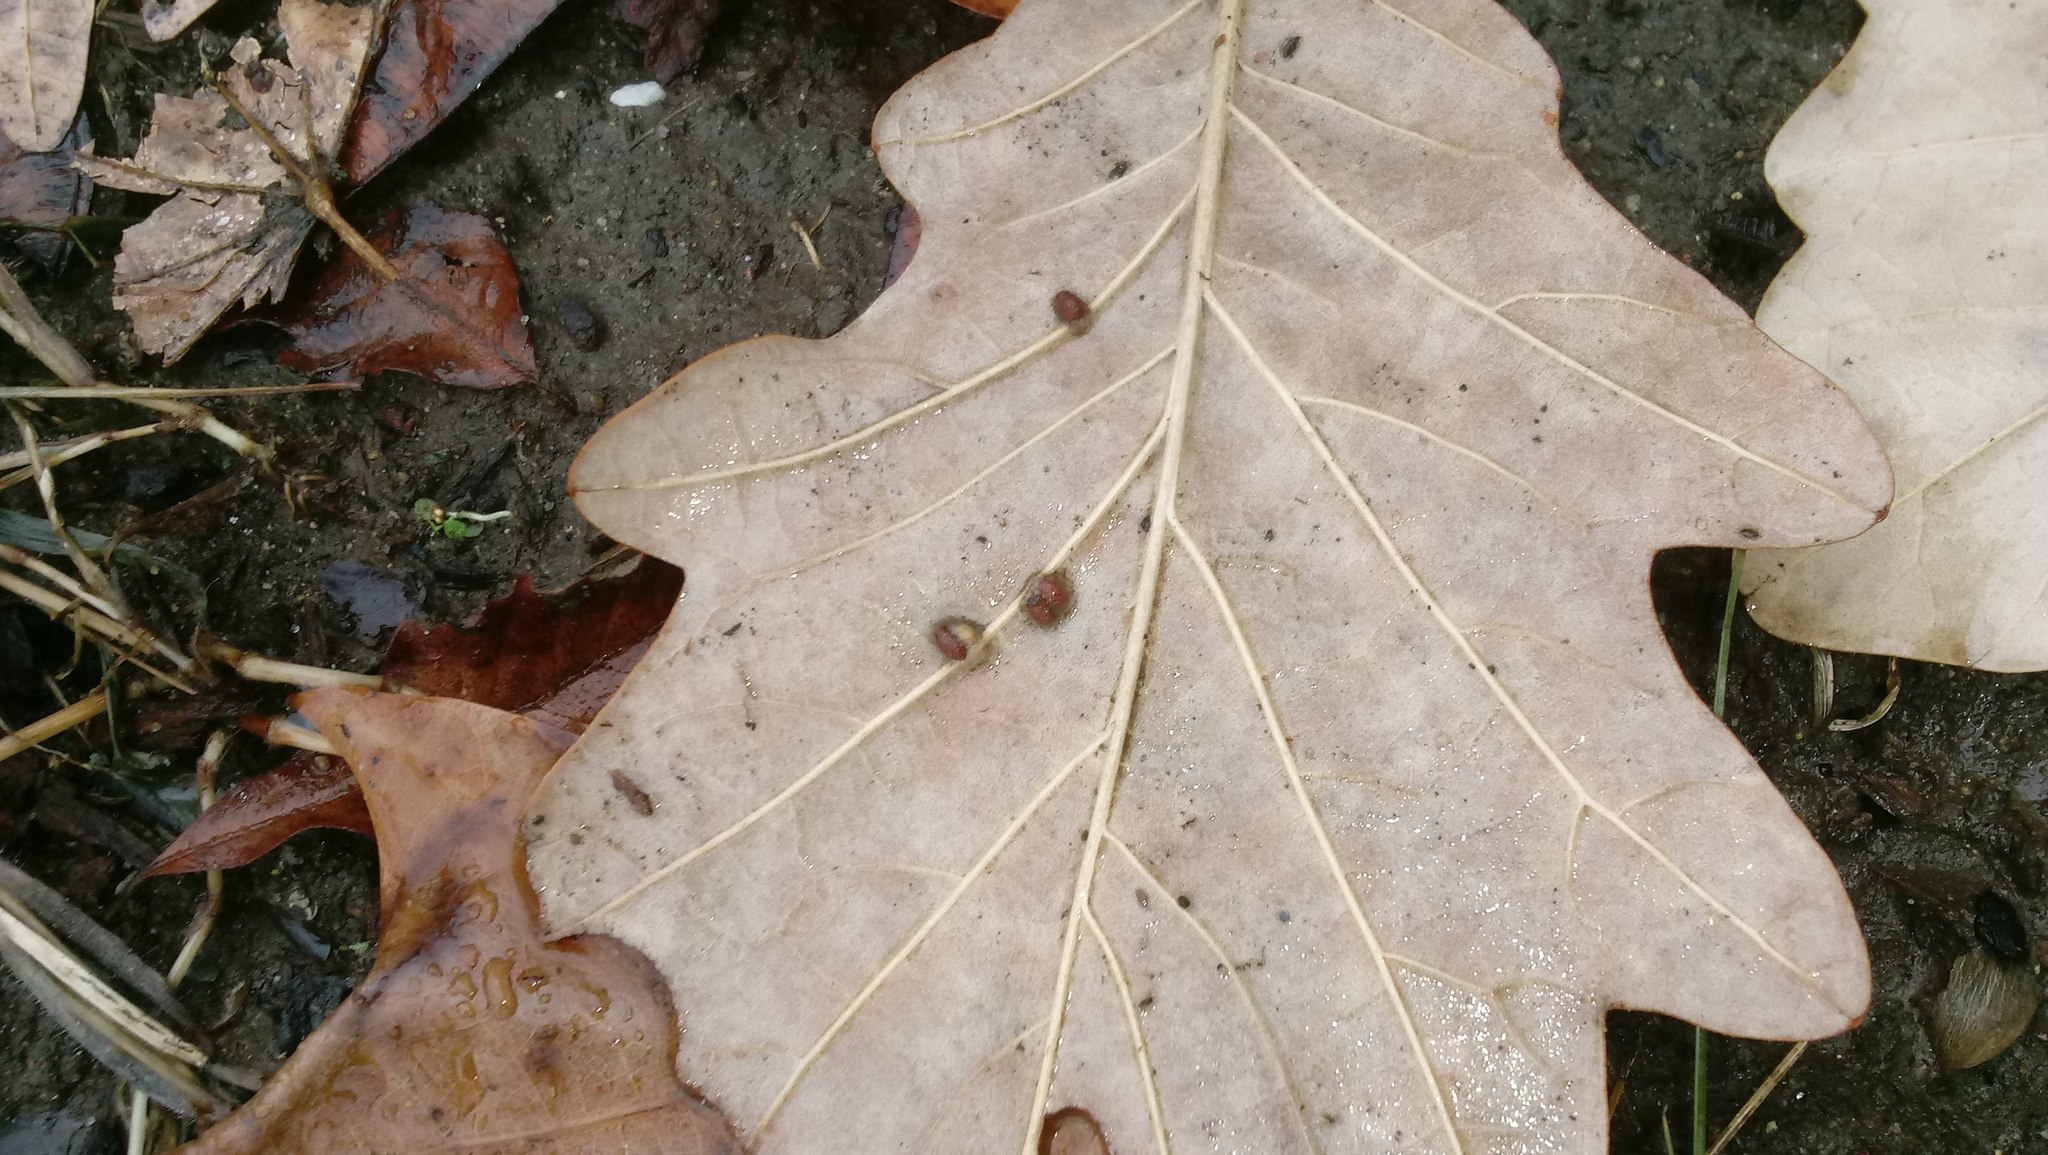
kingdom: Animalia
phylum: Arthropoda
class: Insecta
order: Hymenoptera
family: Cynipidae
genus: Andricus
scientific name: Andricus Druon ignotum
